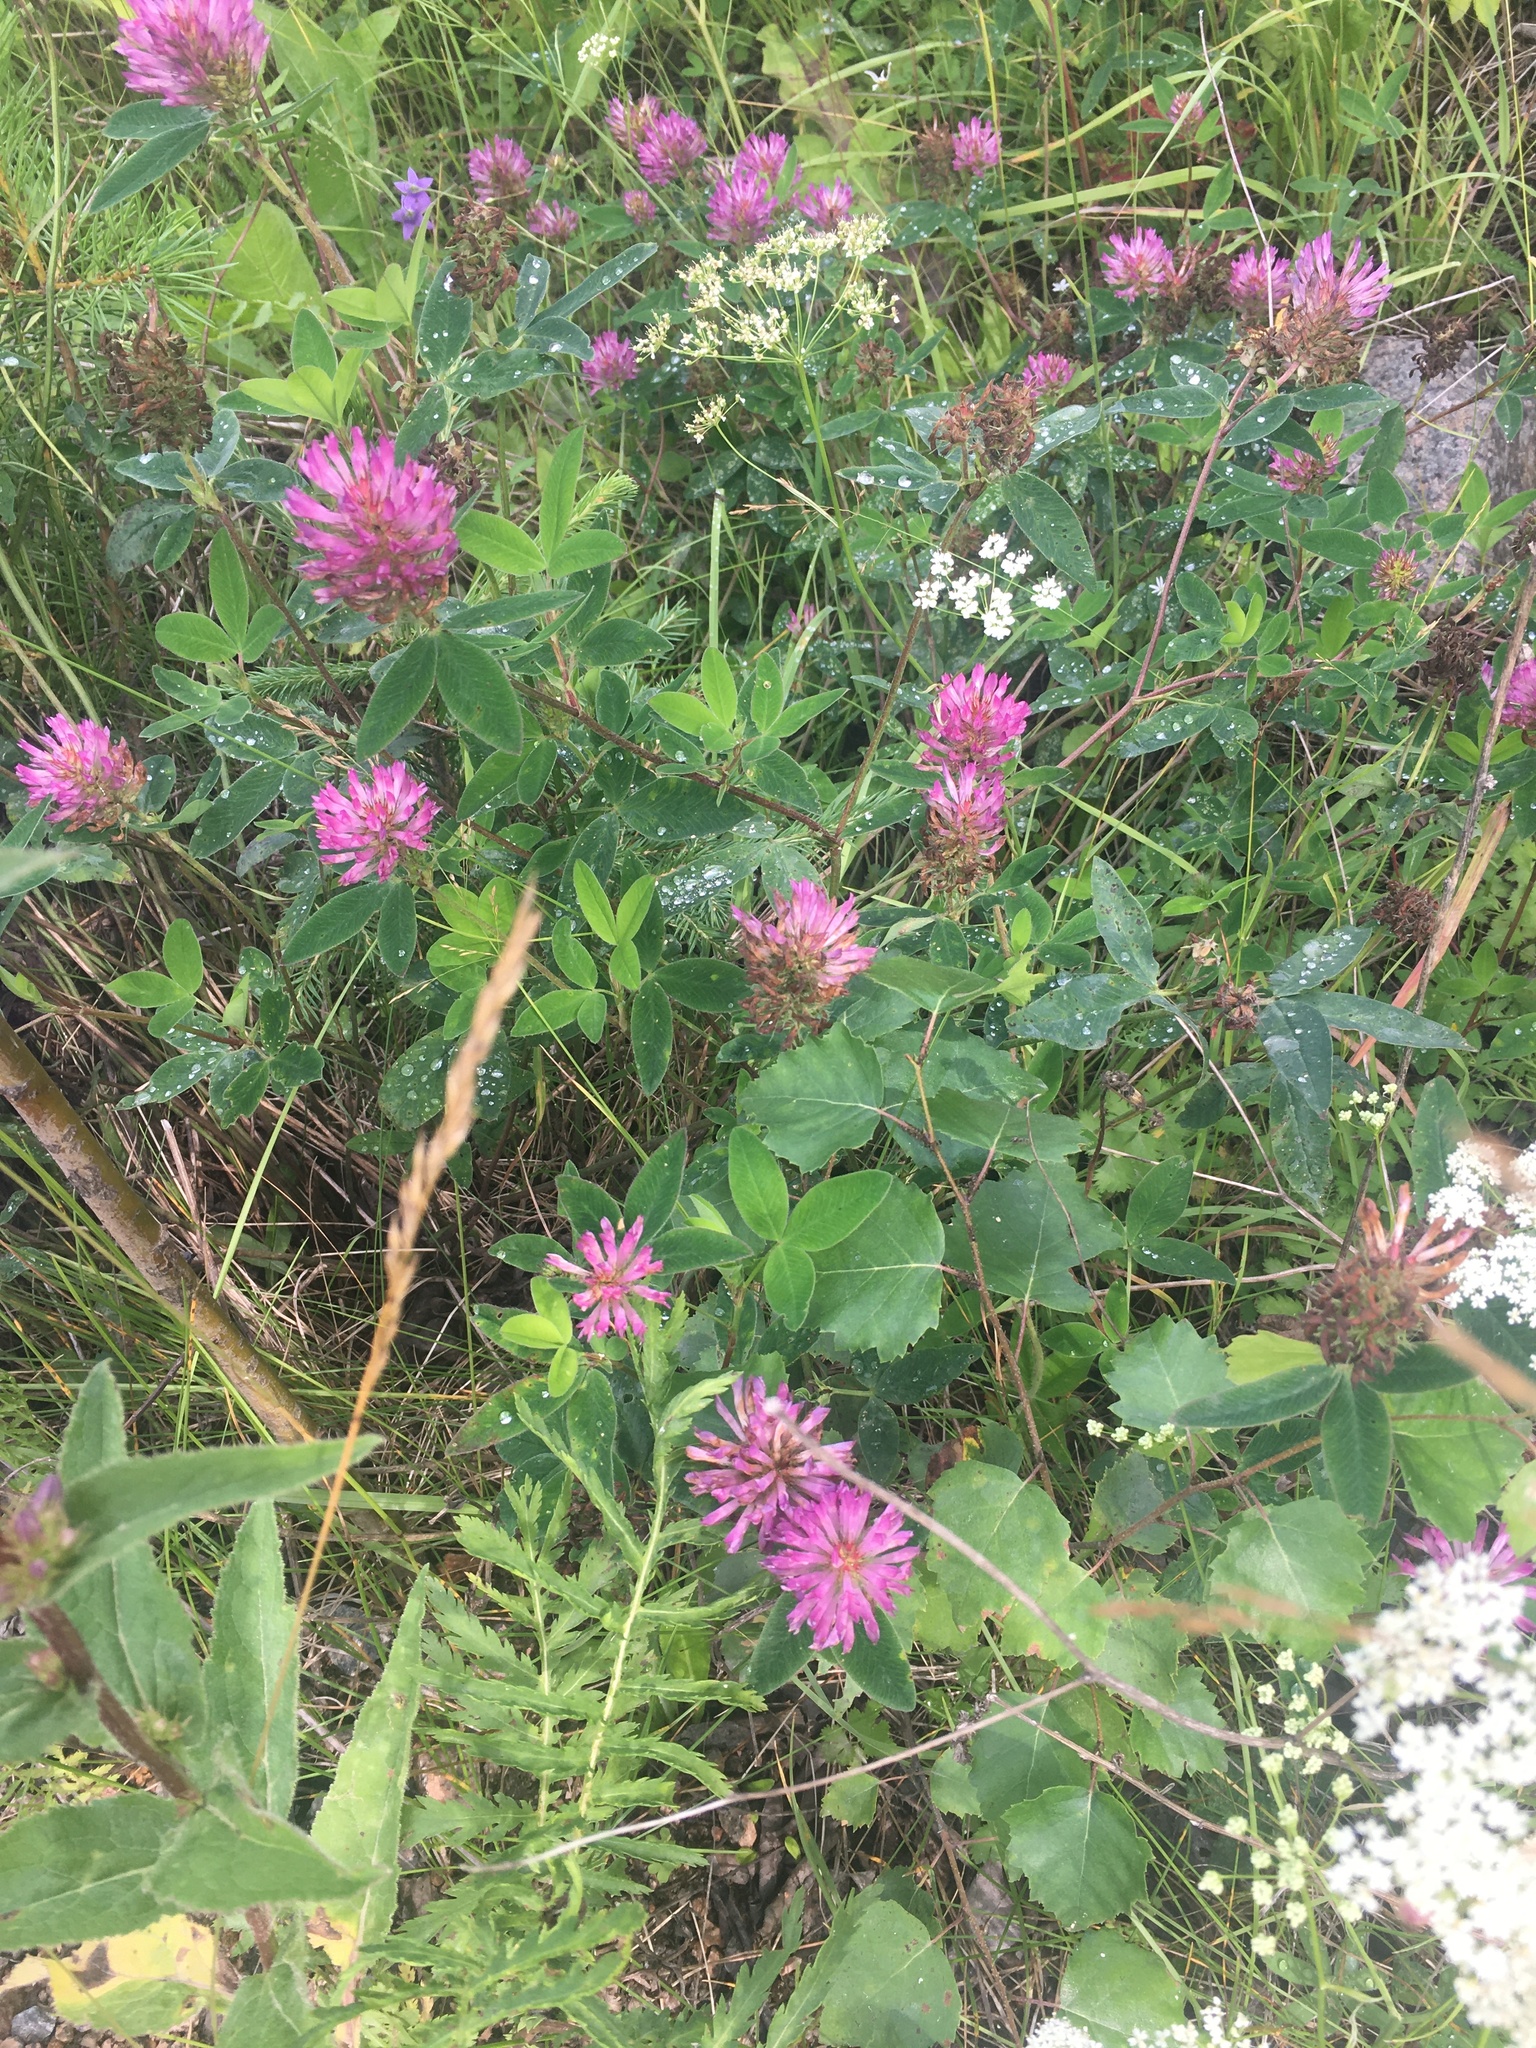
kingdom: Plantae
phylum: Tracheophyta
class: Magnoliopsida
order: Fabales
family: Fabaceae
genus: Trifolium
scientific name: Trifolium pratense
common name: Red clover
